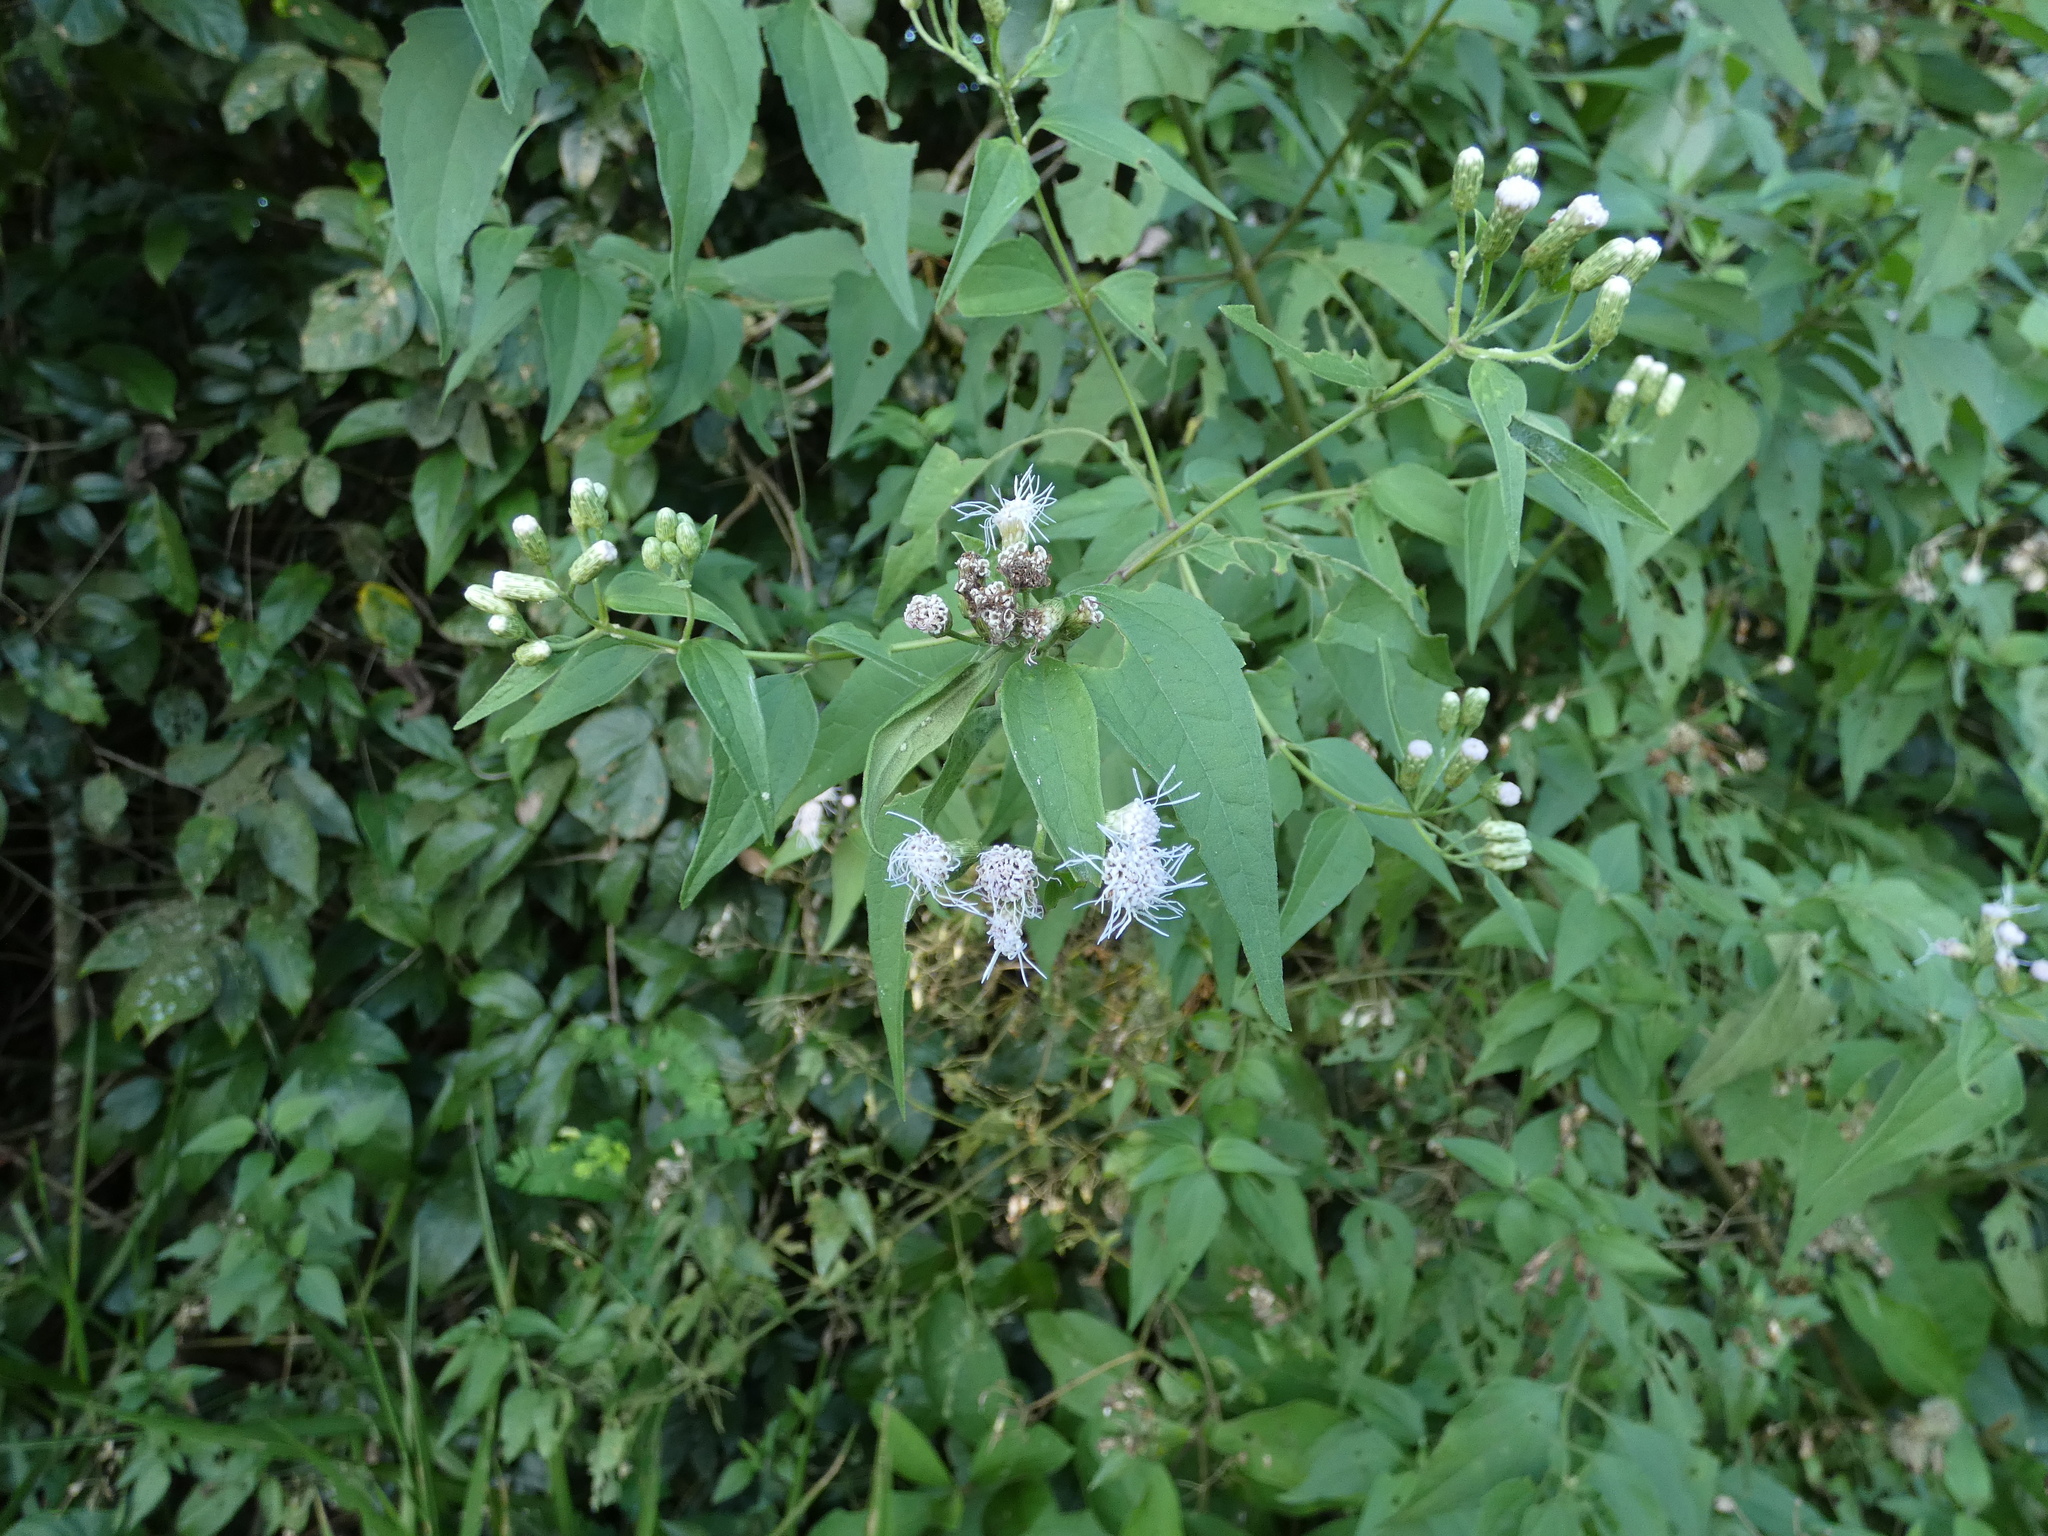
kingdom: Plantae
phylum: Tracheophyta
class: Magnoliopsida
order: Asterales
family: Asteraceae
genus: Chromolaena
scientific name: Chromolaena odorata
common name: Siamweed
